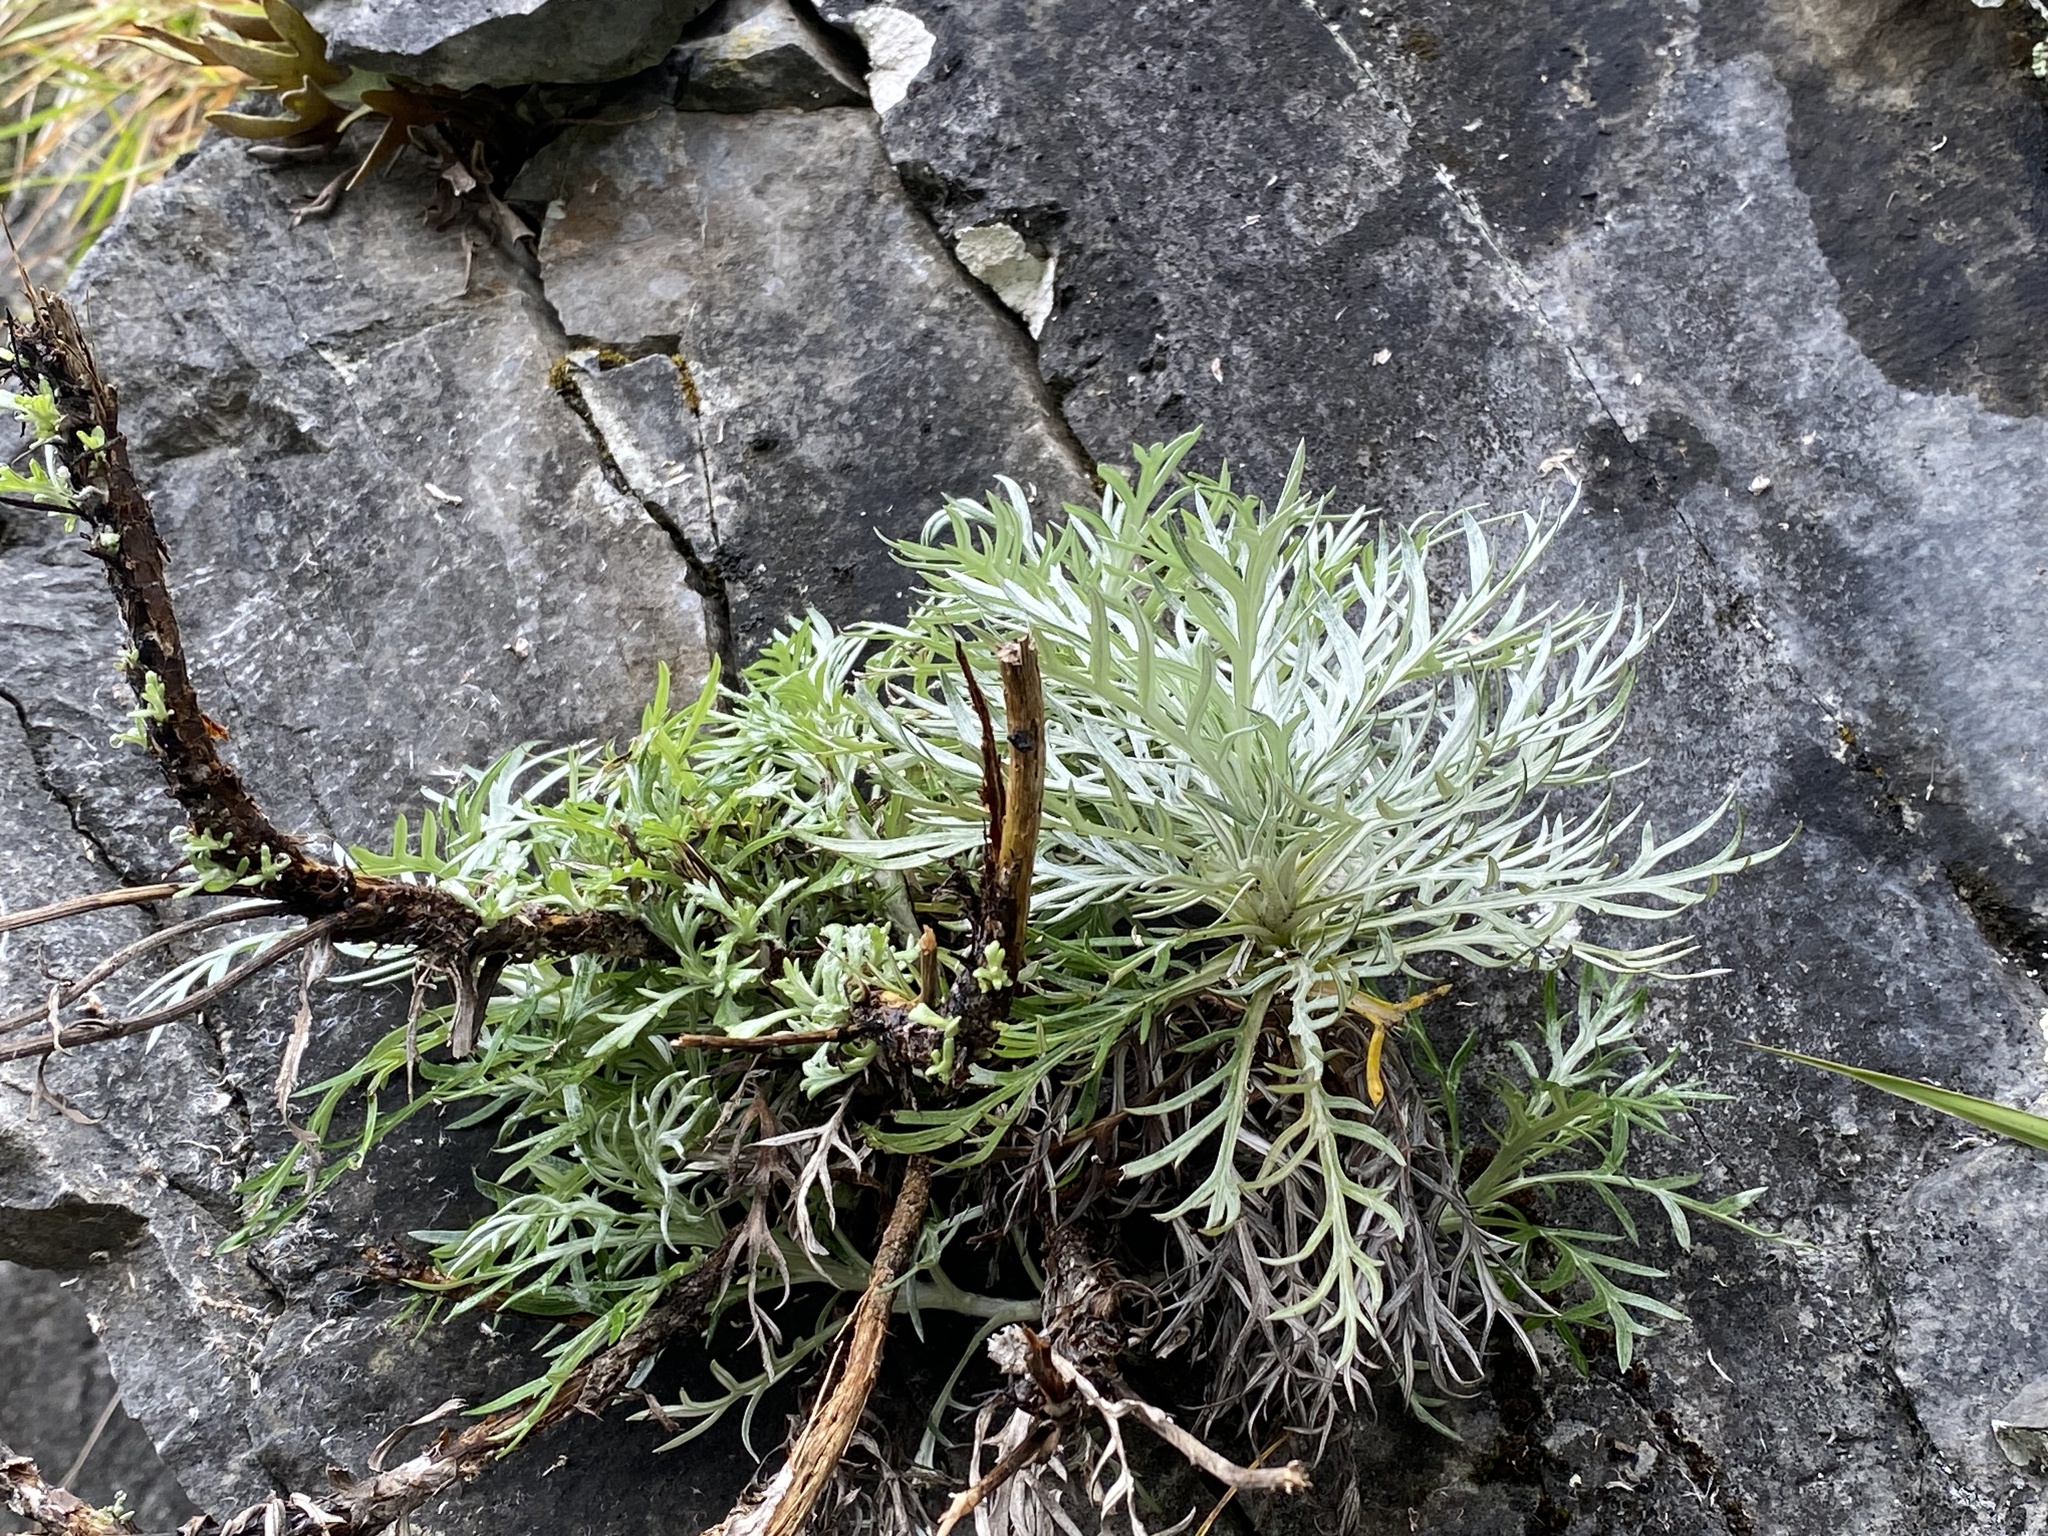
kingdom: Plantae
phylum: Tracheophyta
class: Magnoliopsida
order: Asterales
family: Asteraceae
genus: Artemisia
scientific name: Artemisia somae
